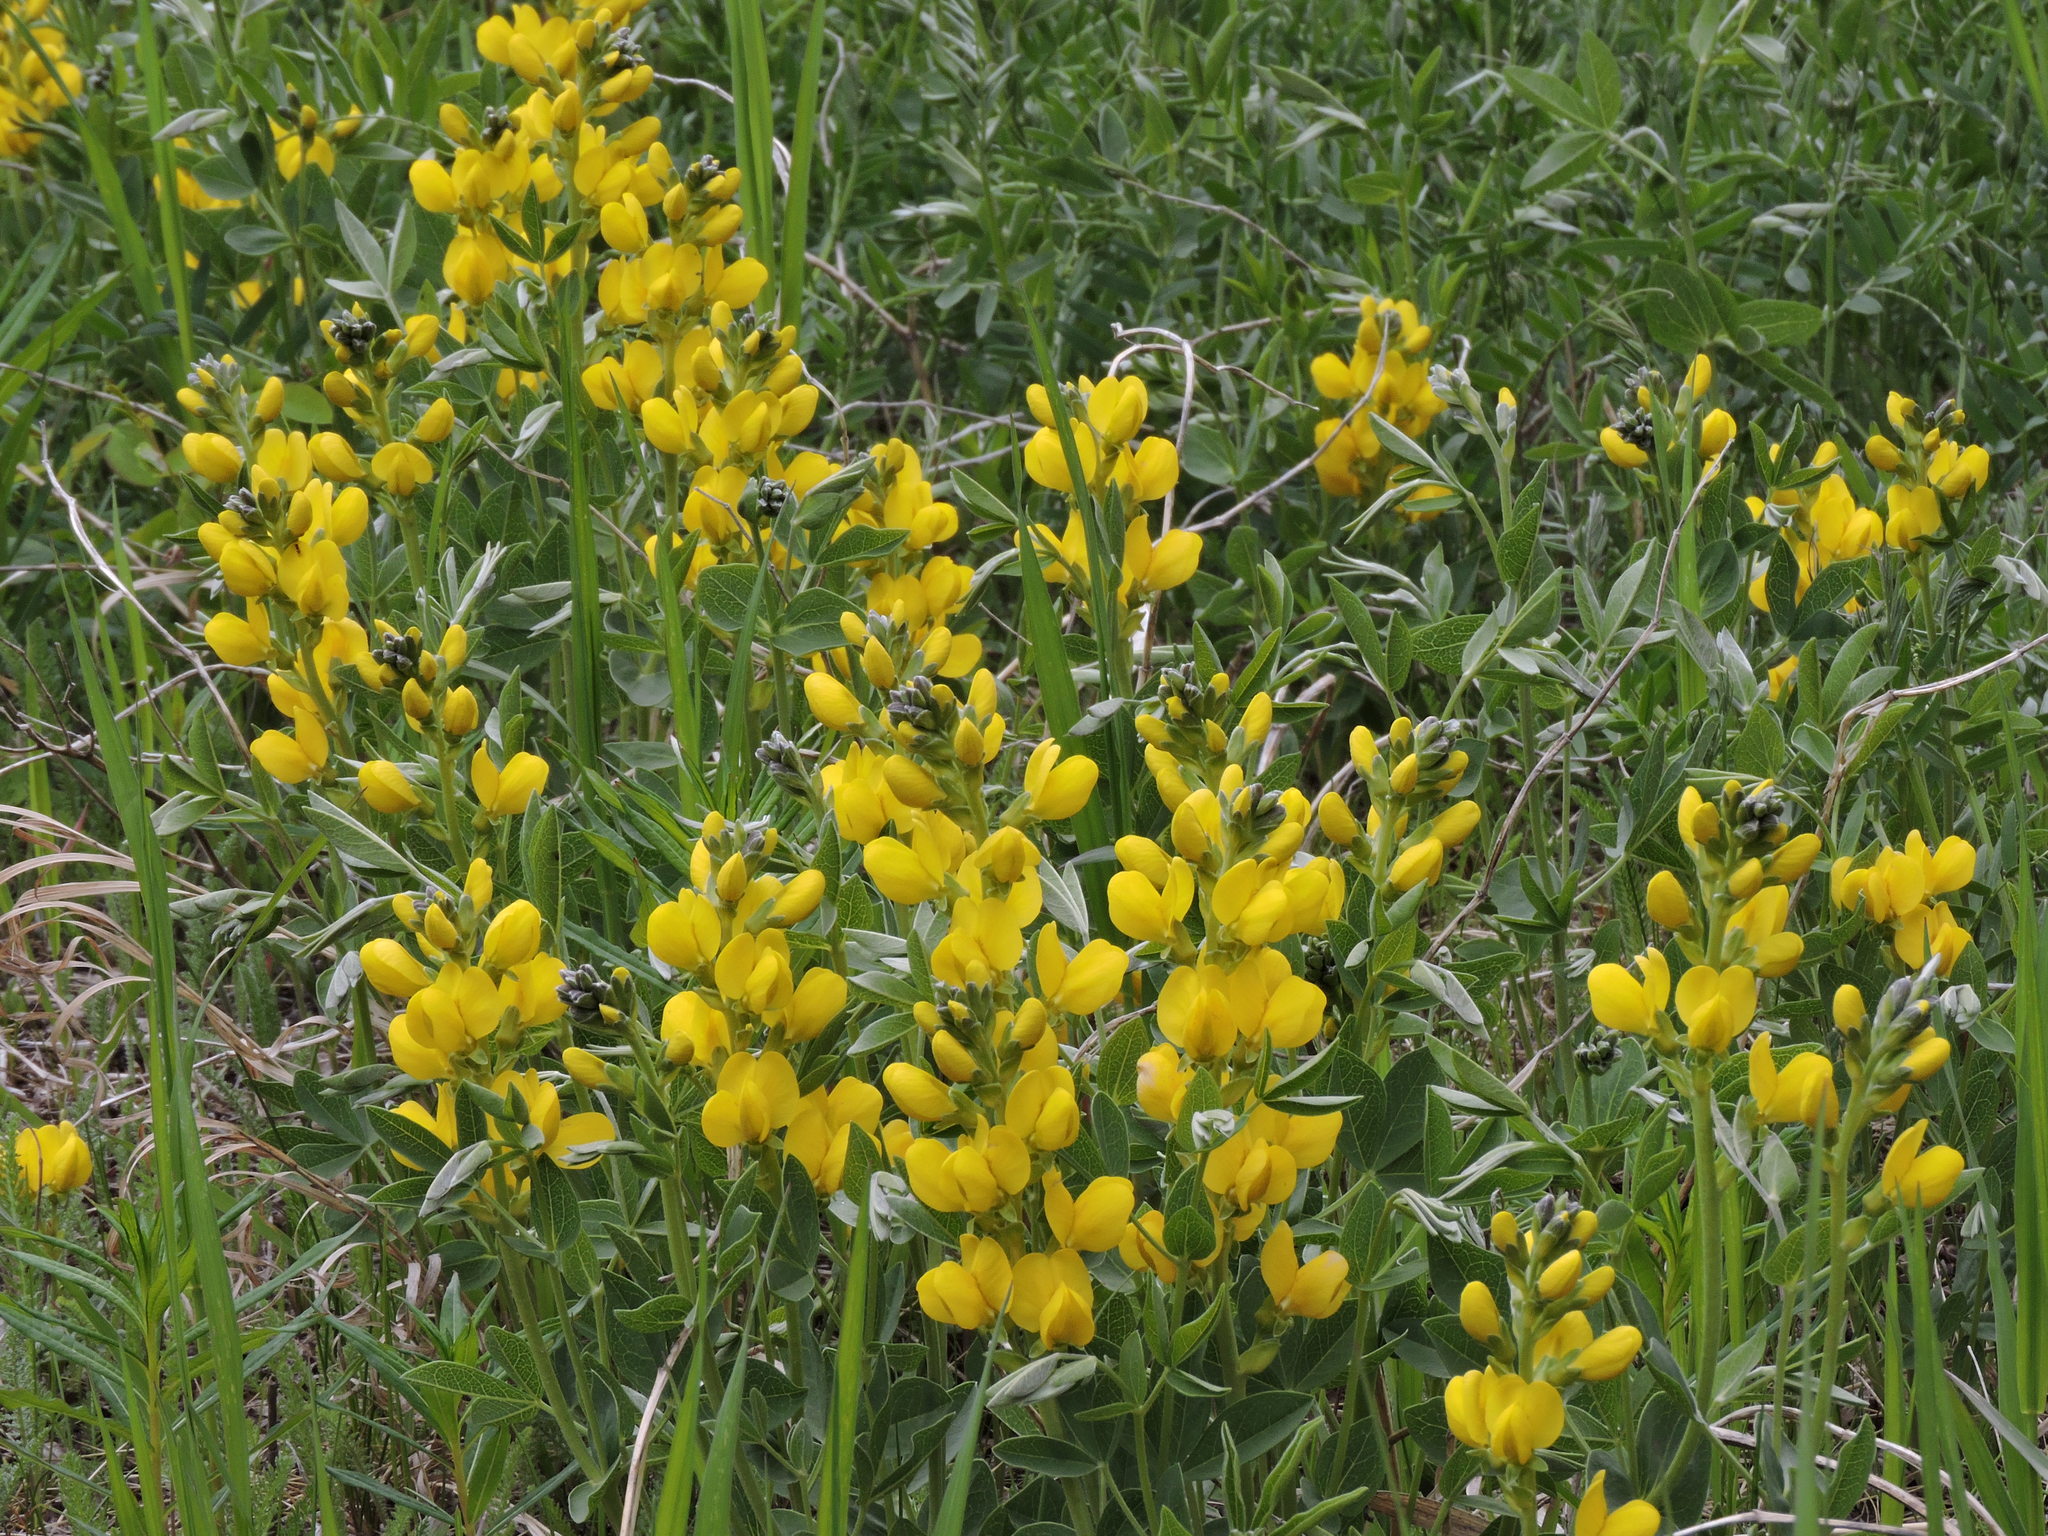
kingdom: Plantae
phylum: Tracheophyta
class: Magnoliopsida
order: Fabales
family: Fabaceae
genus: Thermopsis
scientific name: Thermopsis rhombifolia
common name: Circle-pod-pea
